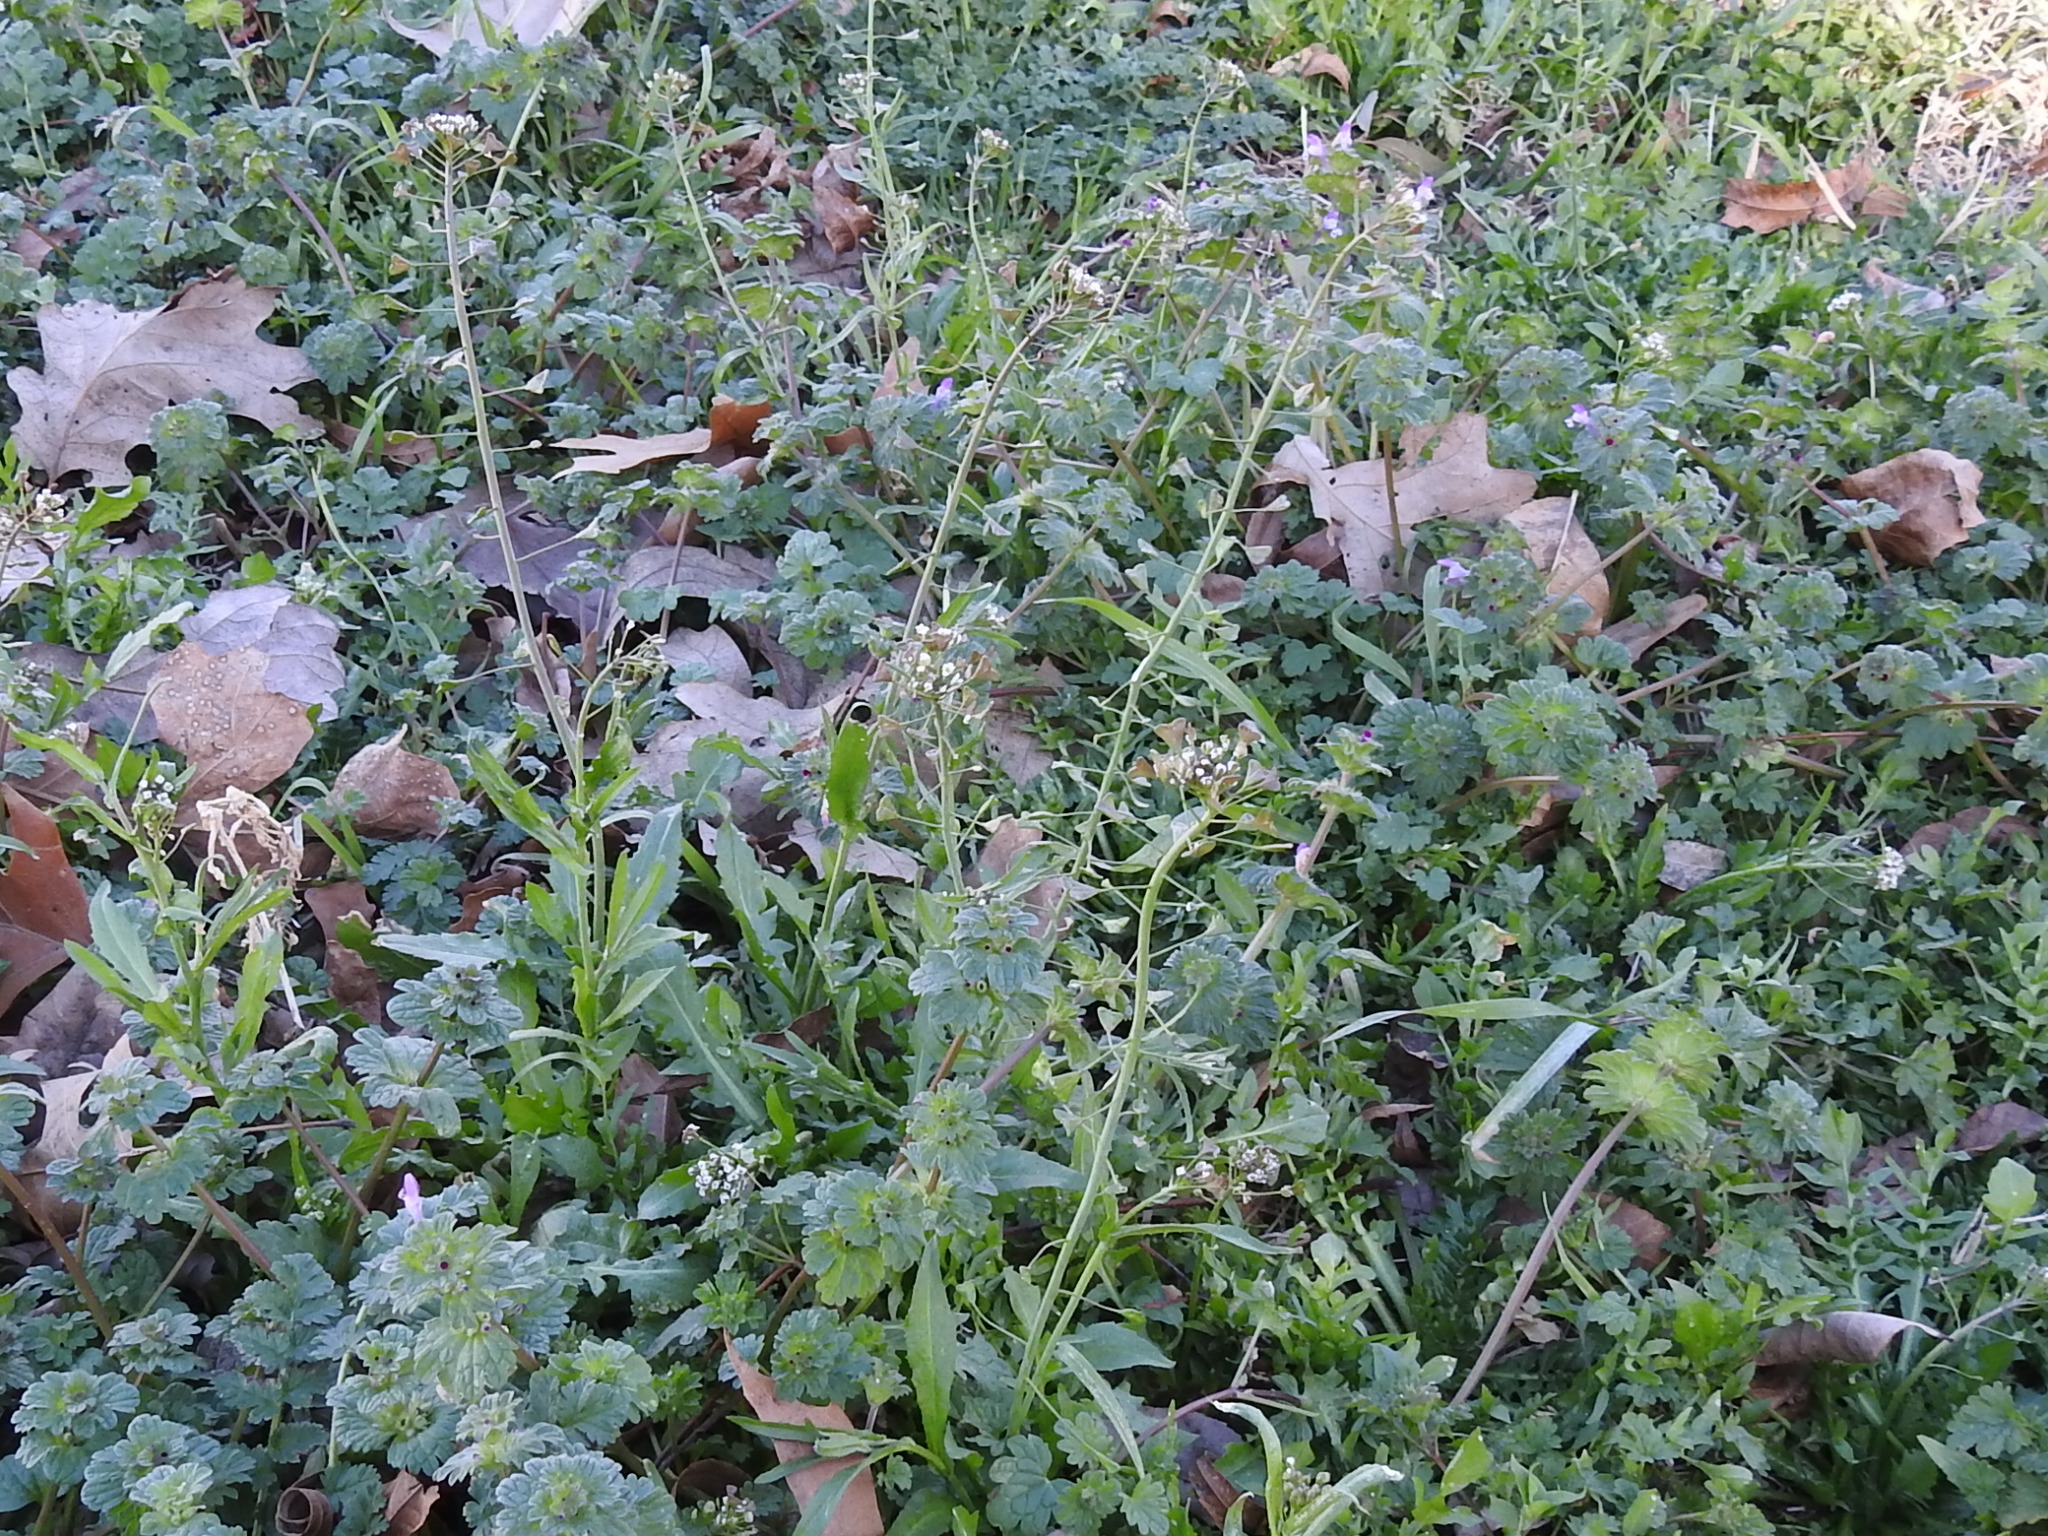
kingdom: Plantae
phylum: Tracheophyta
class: Magnoliopsida
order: Brassicales
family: Brassicaceae
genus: Capsella
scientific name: Capsella bursa-pastoris
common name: Shepherd's purse
